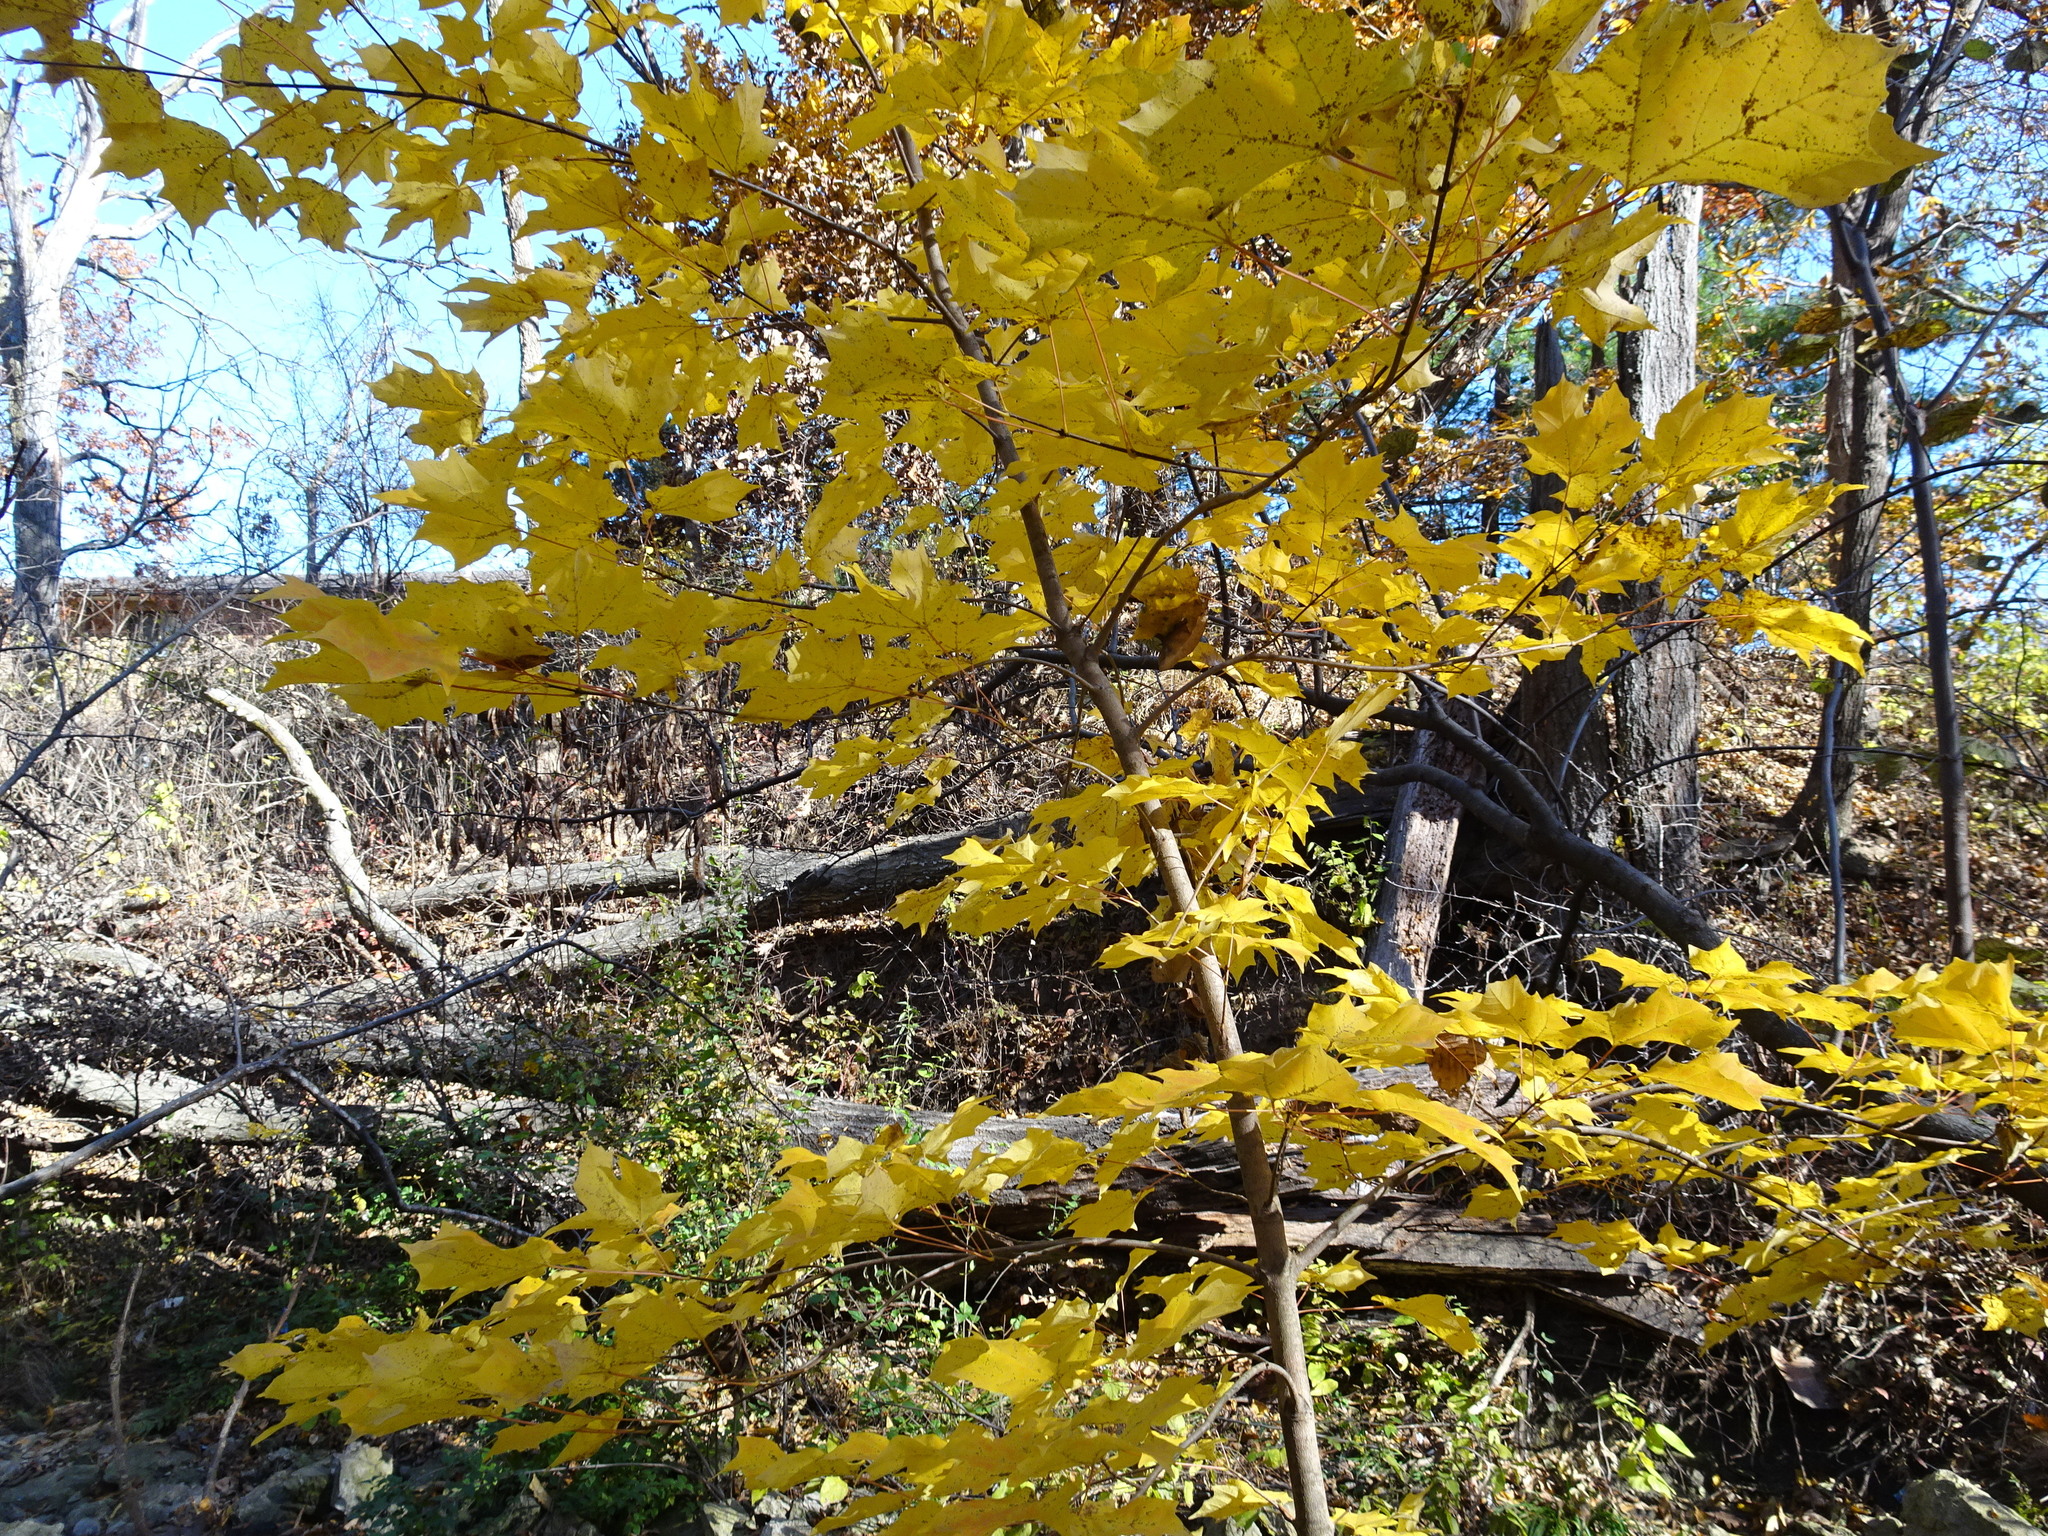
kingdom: Plantae
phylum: Tracheophyta
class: Magnoliopsida
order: Sapindales
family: Sapindaceae
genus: Acer
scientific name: Acer saccharum
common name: Sugar maple
